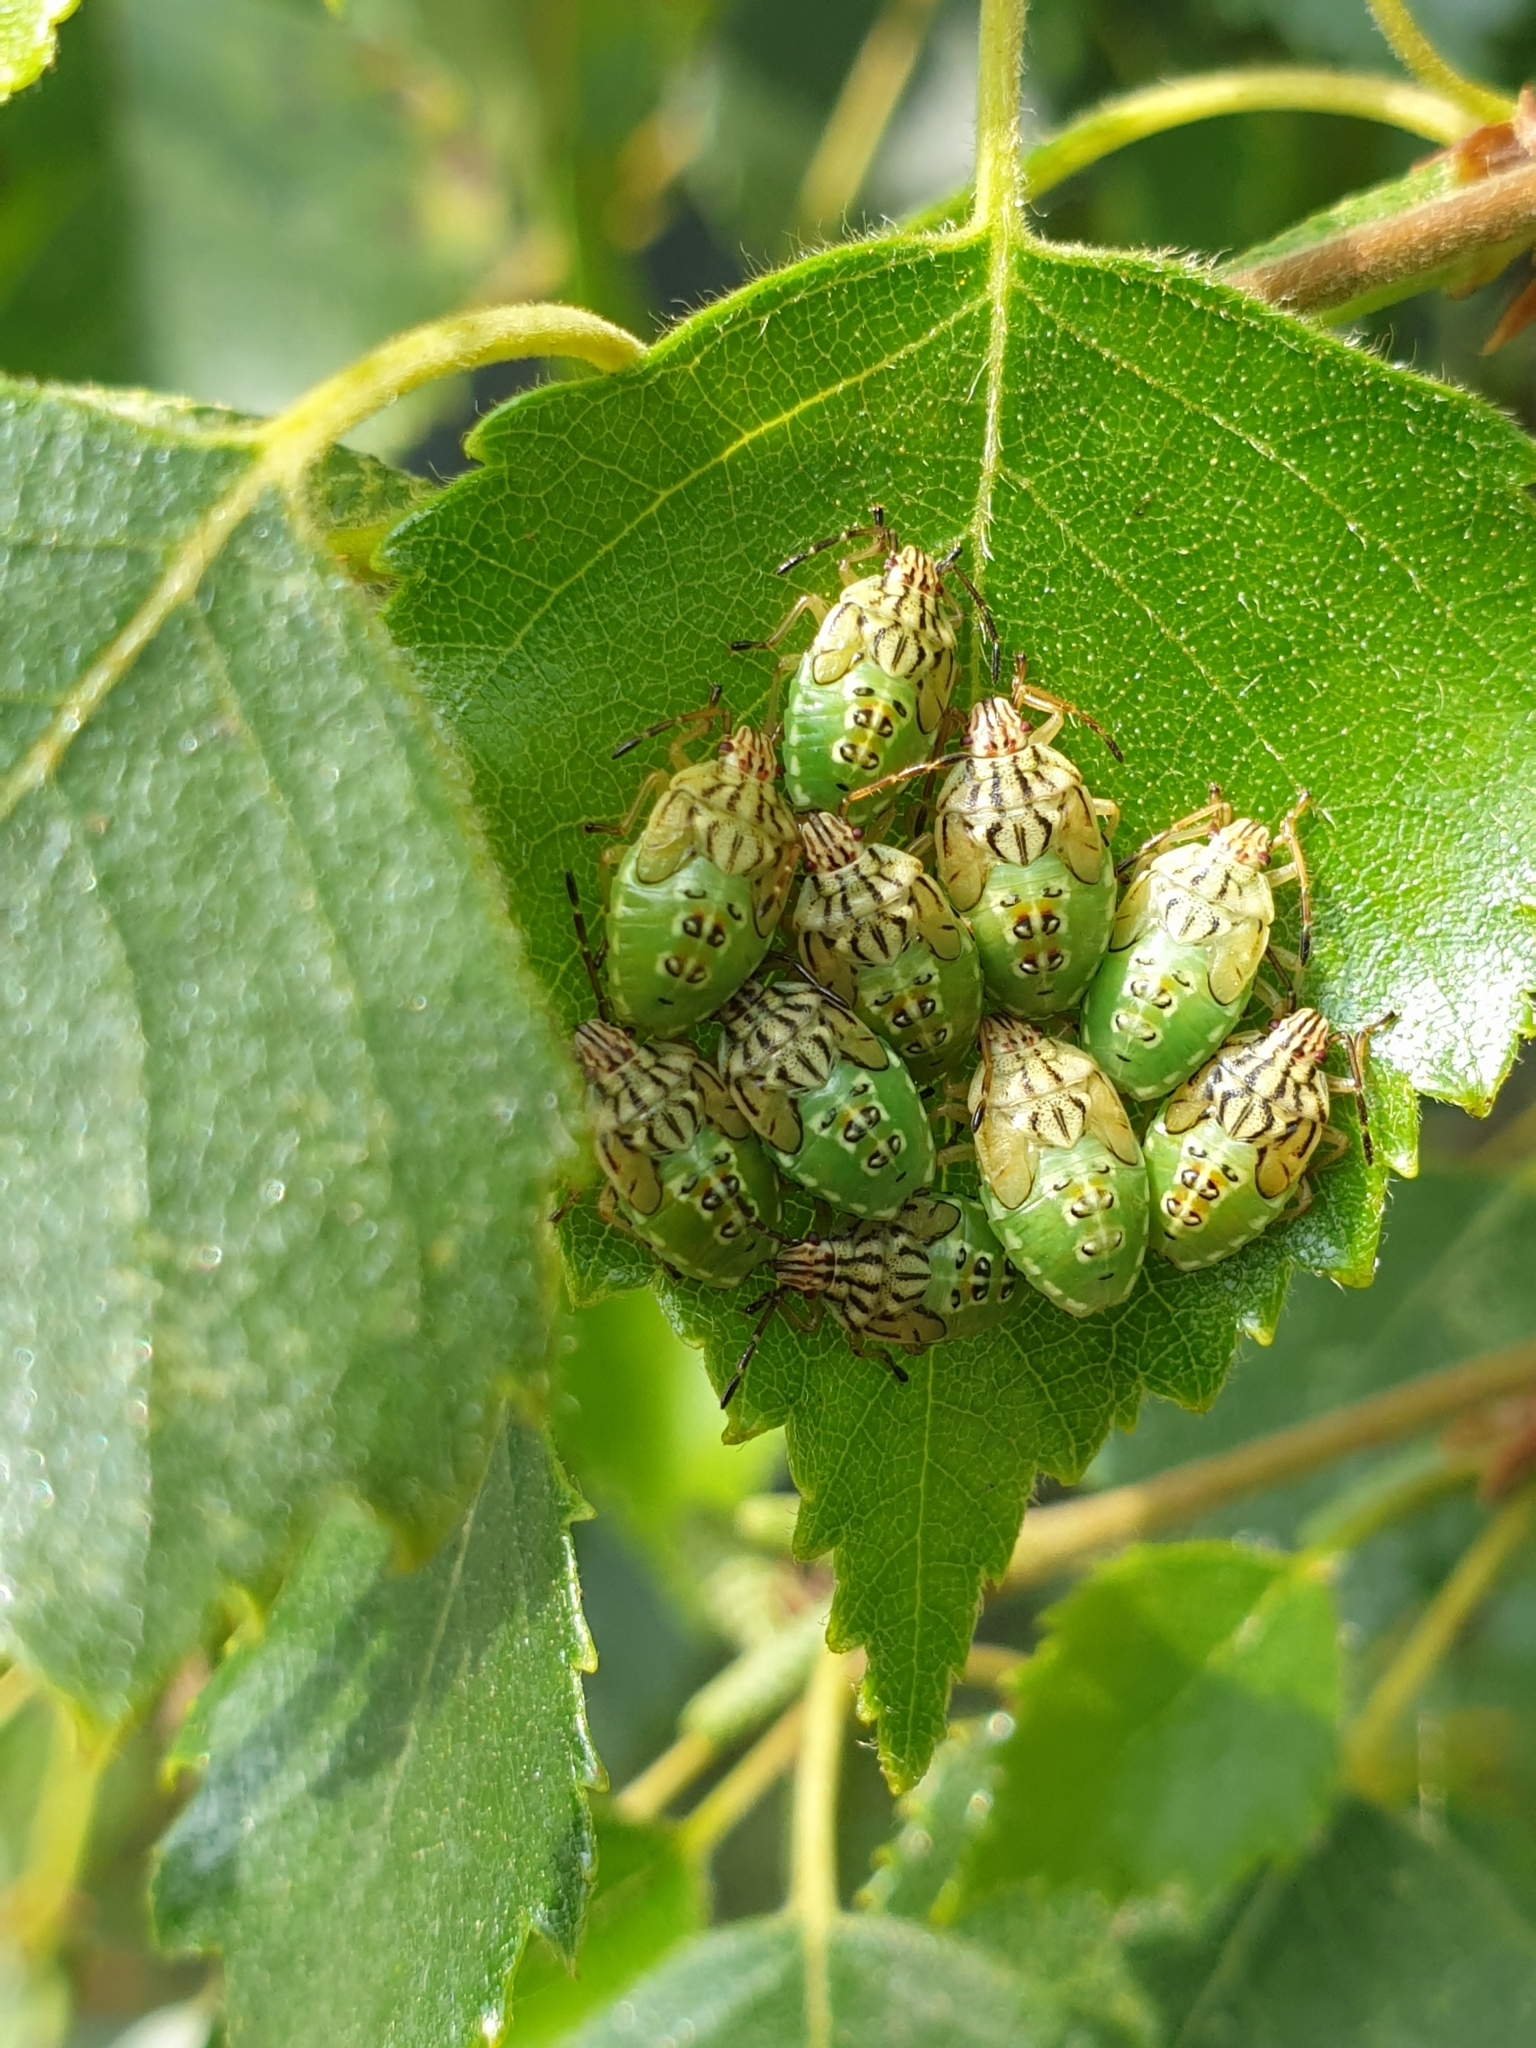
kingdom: Animalia
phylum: Arthropoda
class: Insecta
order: Hemiptera
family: Acanthosomatidae
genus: Elasmucha
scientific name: Elasmucha grisea
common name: Parent bug
